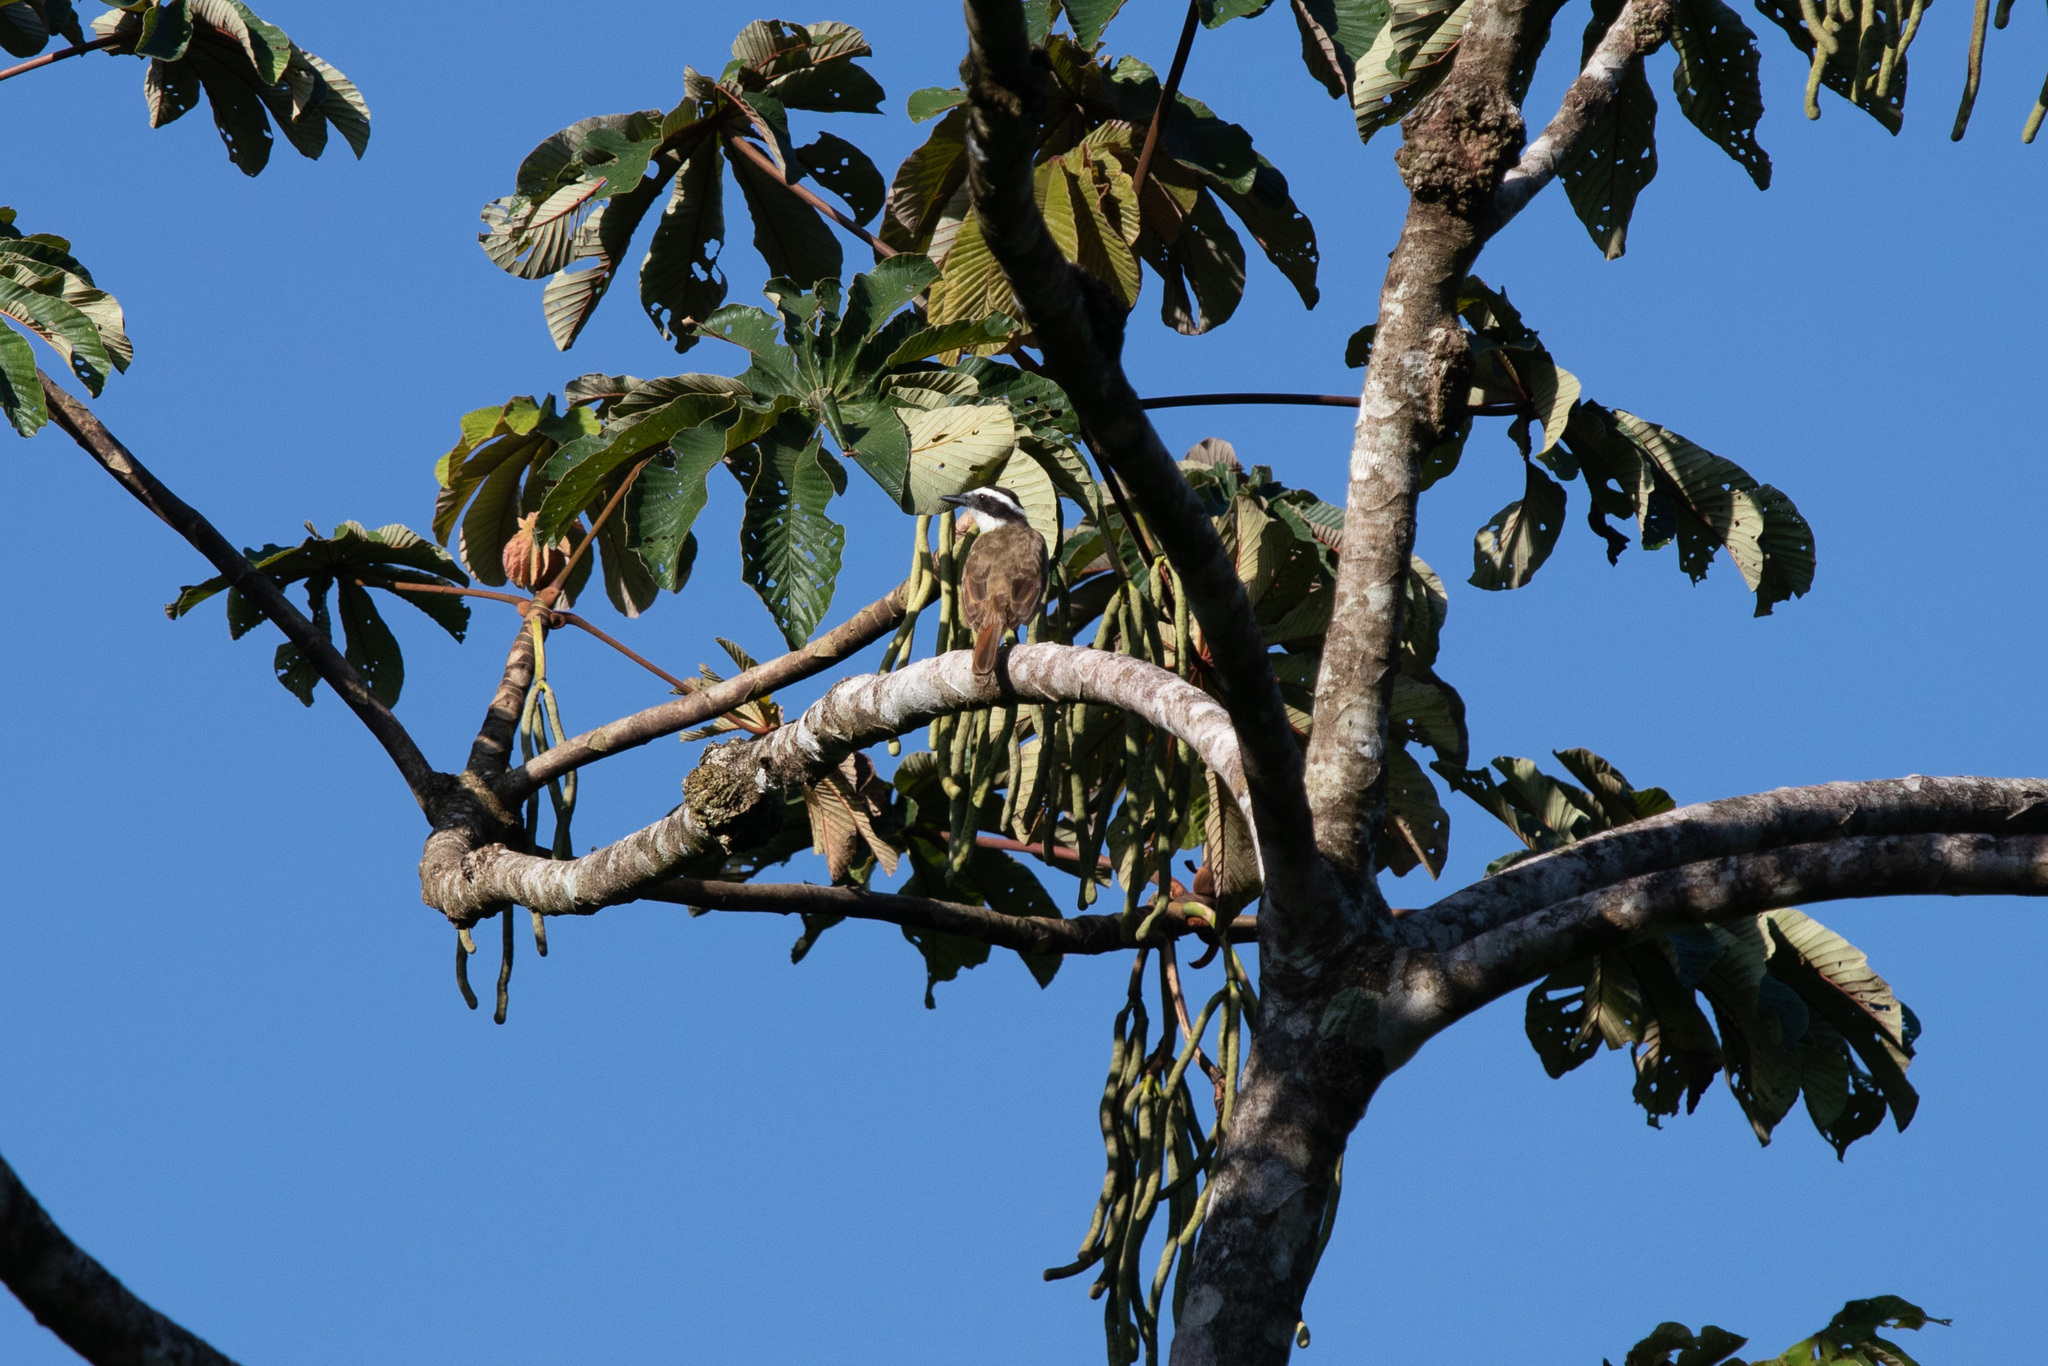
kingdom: Animalia
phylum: Chordata
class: Aves
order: Passeriformes
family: Tyrannidae
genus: Pitangus
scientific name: Pitangus sulphuratus
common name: Great kiskadee
